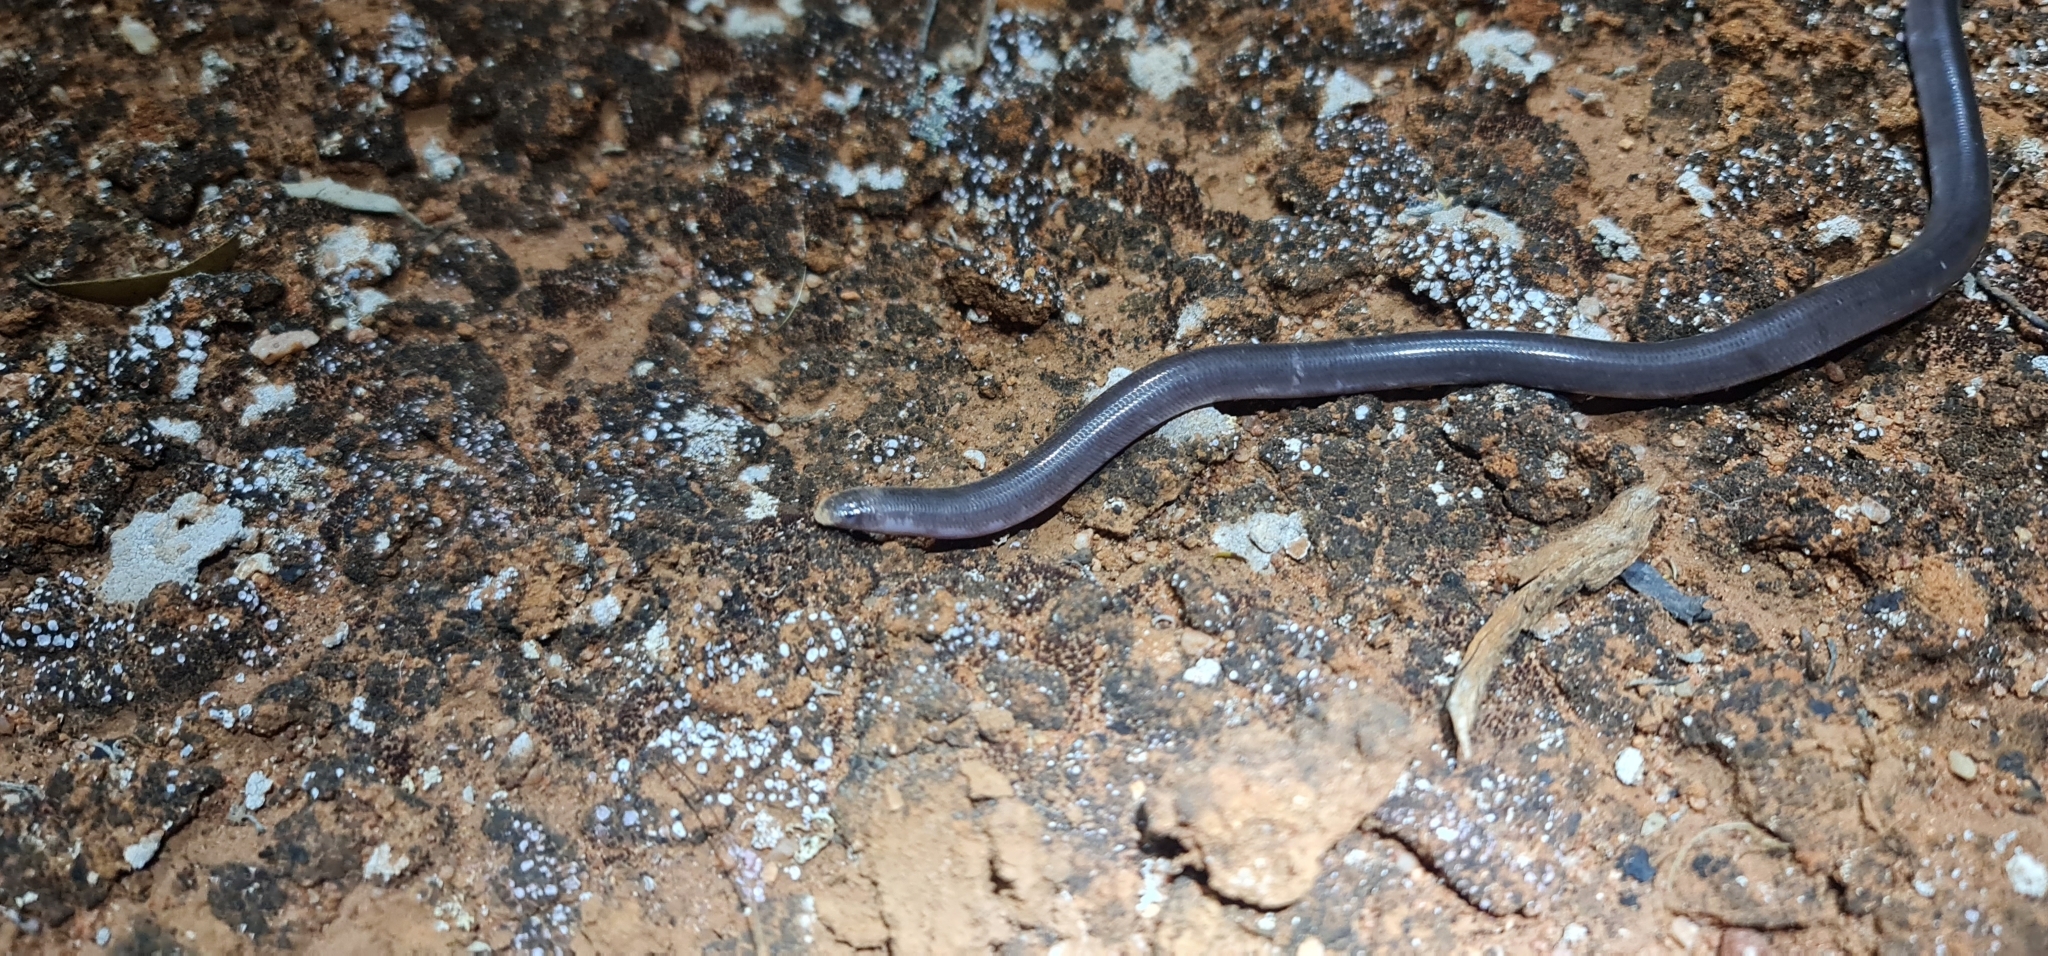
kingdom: Animalia
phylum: Chordata
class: Squamata
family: Typhlopidae
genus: Anilios
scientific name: Anilios bicolor
